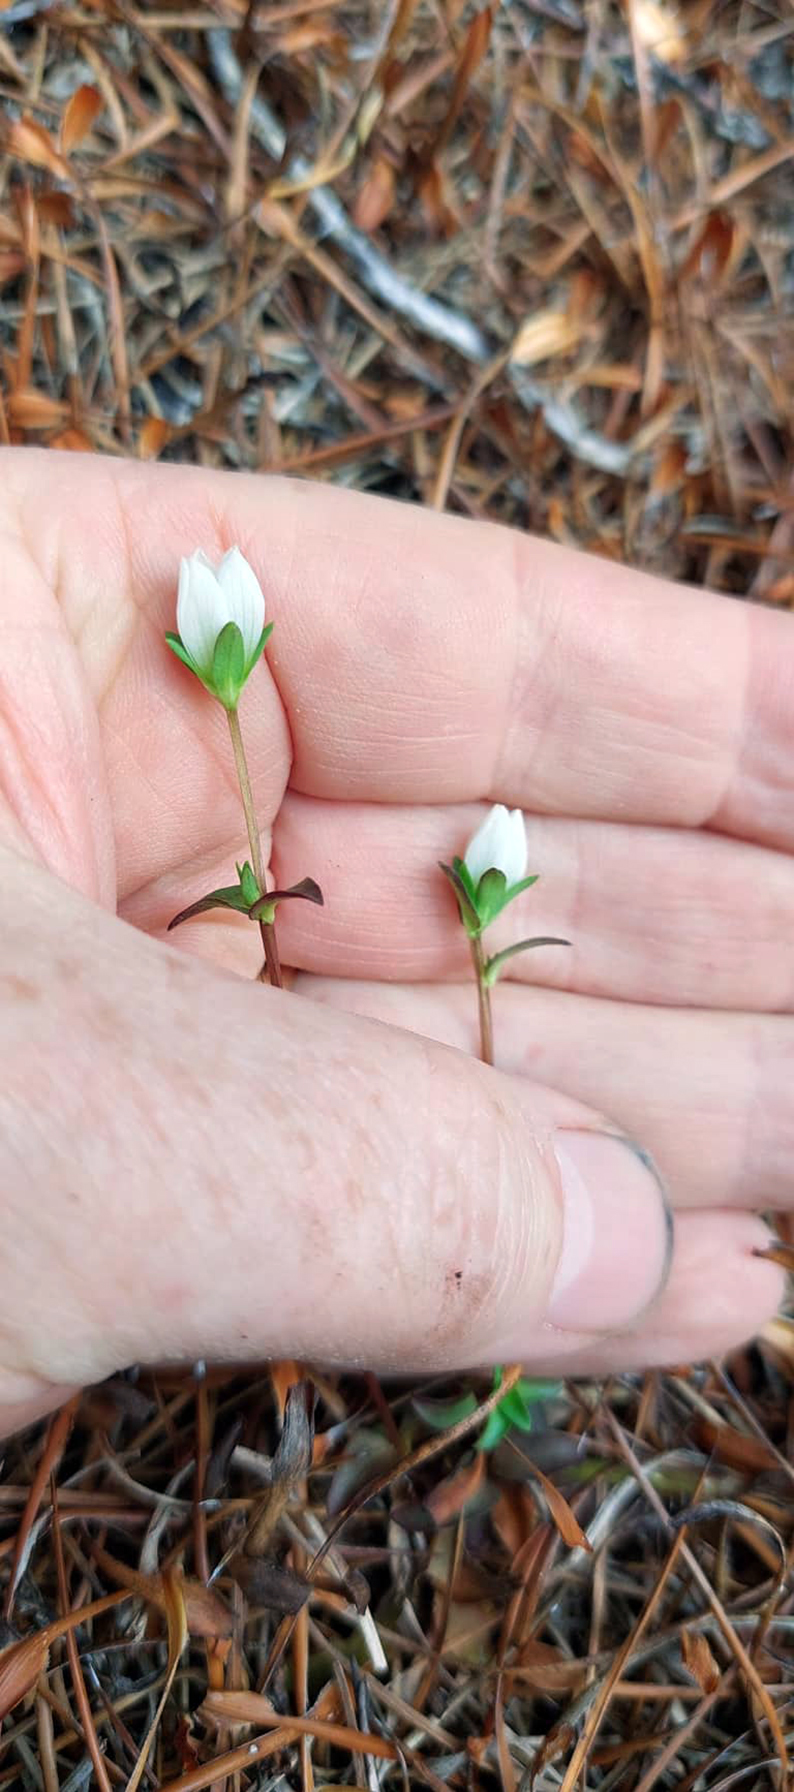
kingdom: Plantae
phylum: Tracheophyta
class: Magnoliopsida
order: Gentianales
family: Gentianaceae
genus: Gentianella
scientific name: Gentianella chathamica
